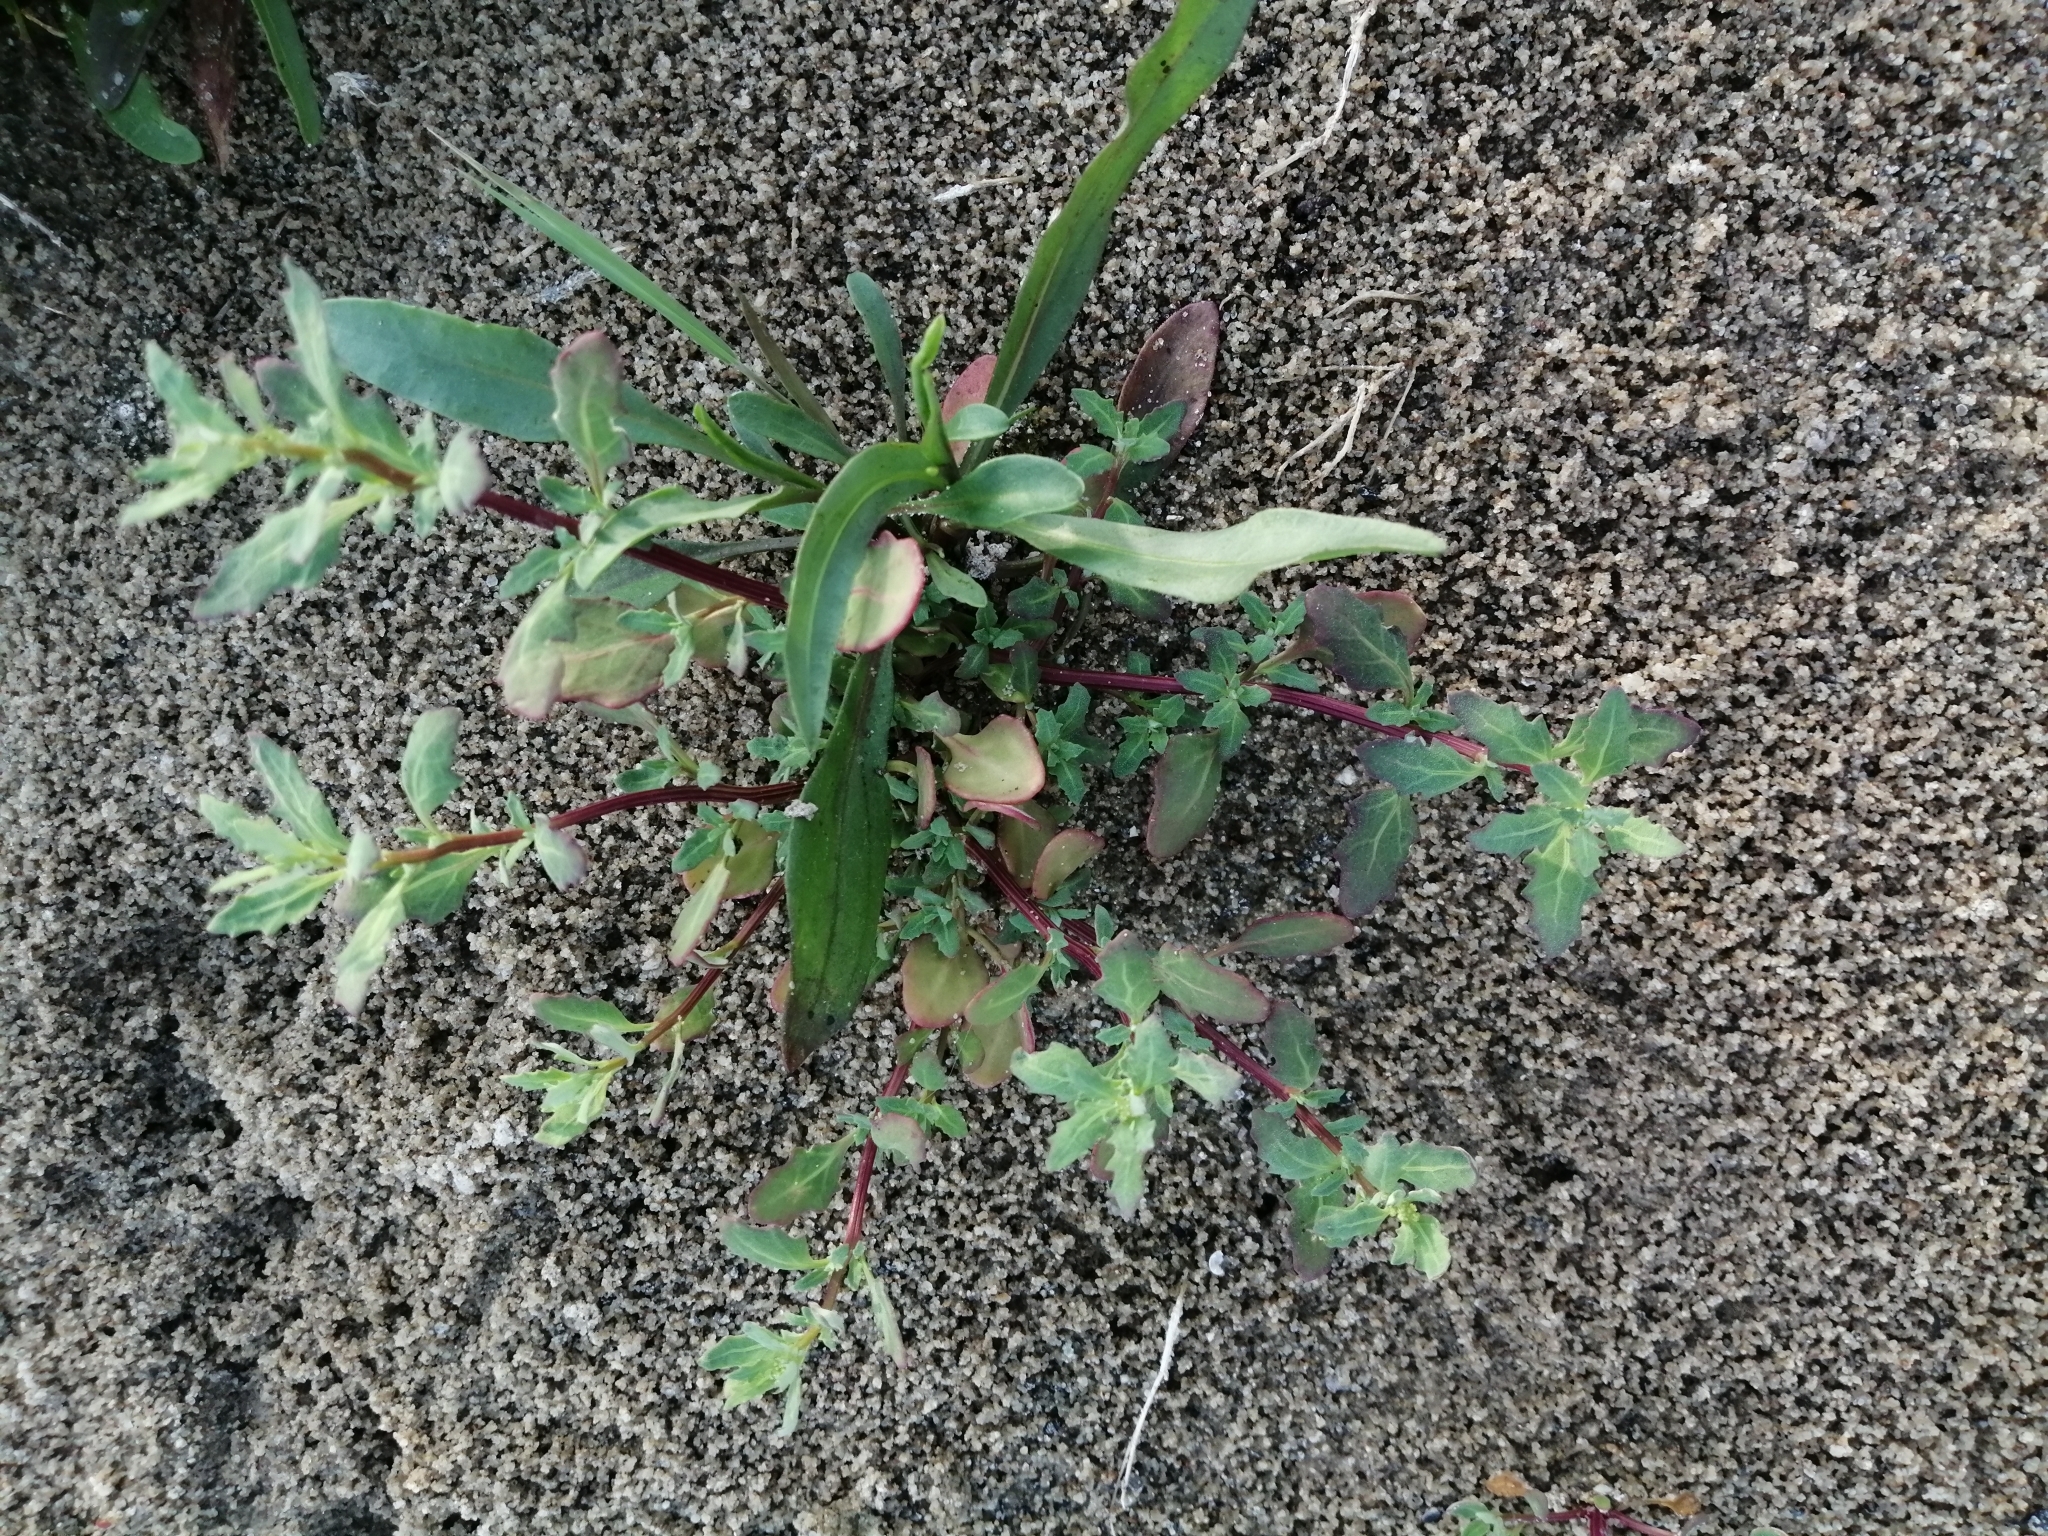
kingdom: Plantae
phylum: Tracheophyta
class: Magnoliopsida
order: Caryophyllales
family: Amaranthaceae
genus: Oxybasis
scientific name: Oxybasis glauca
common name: Glaucous goosefoot
